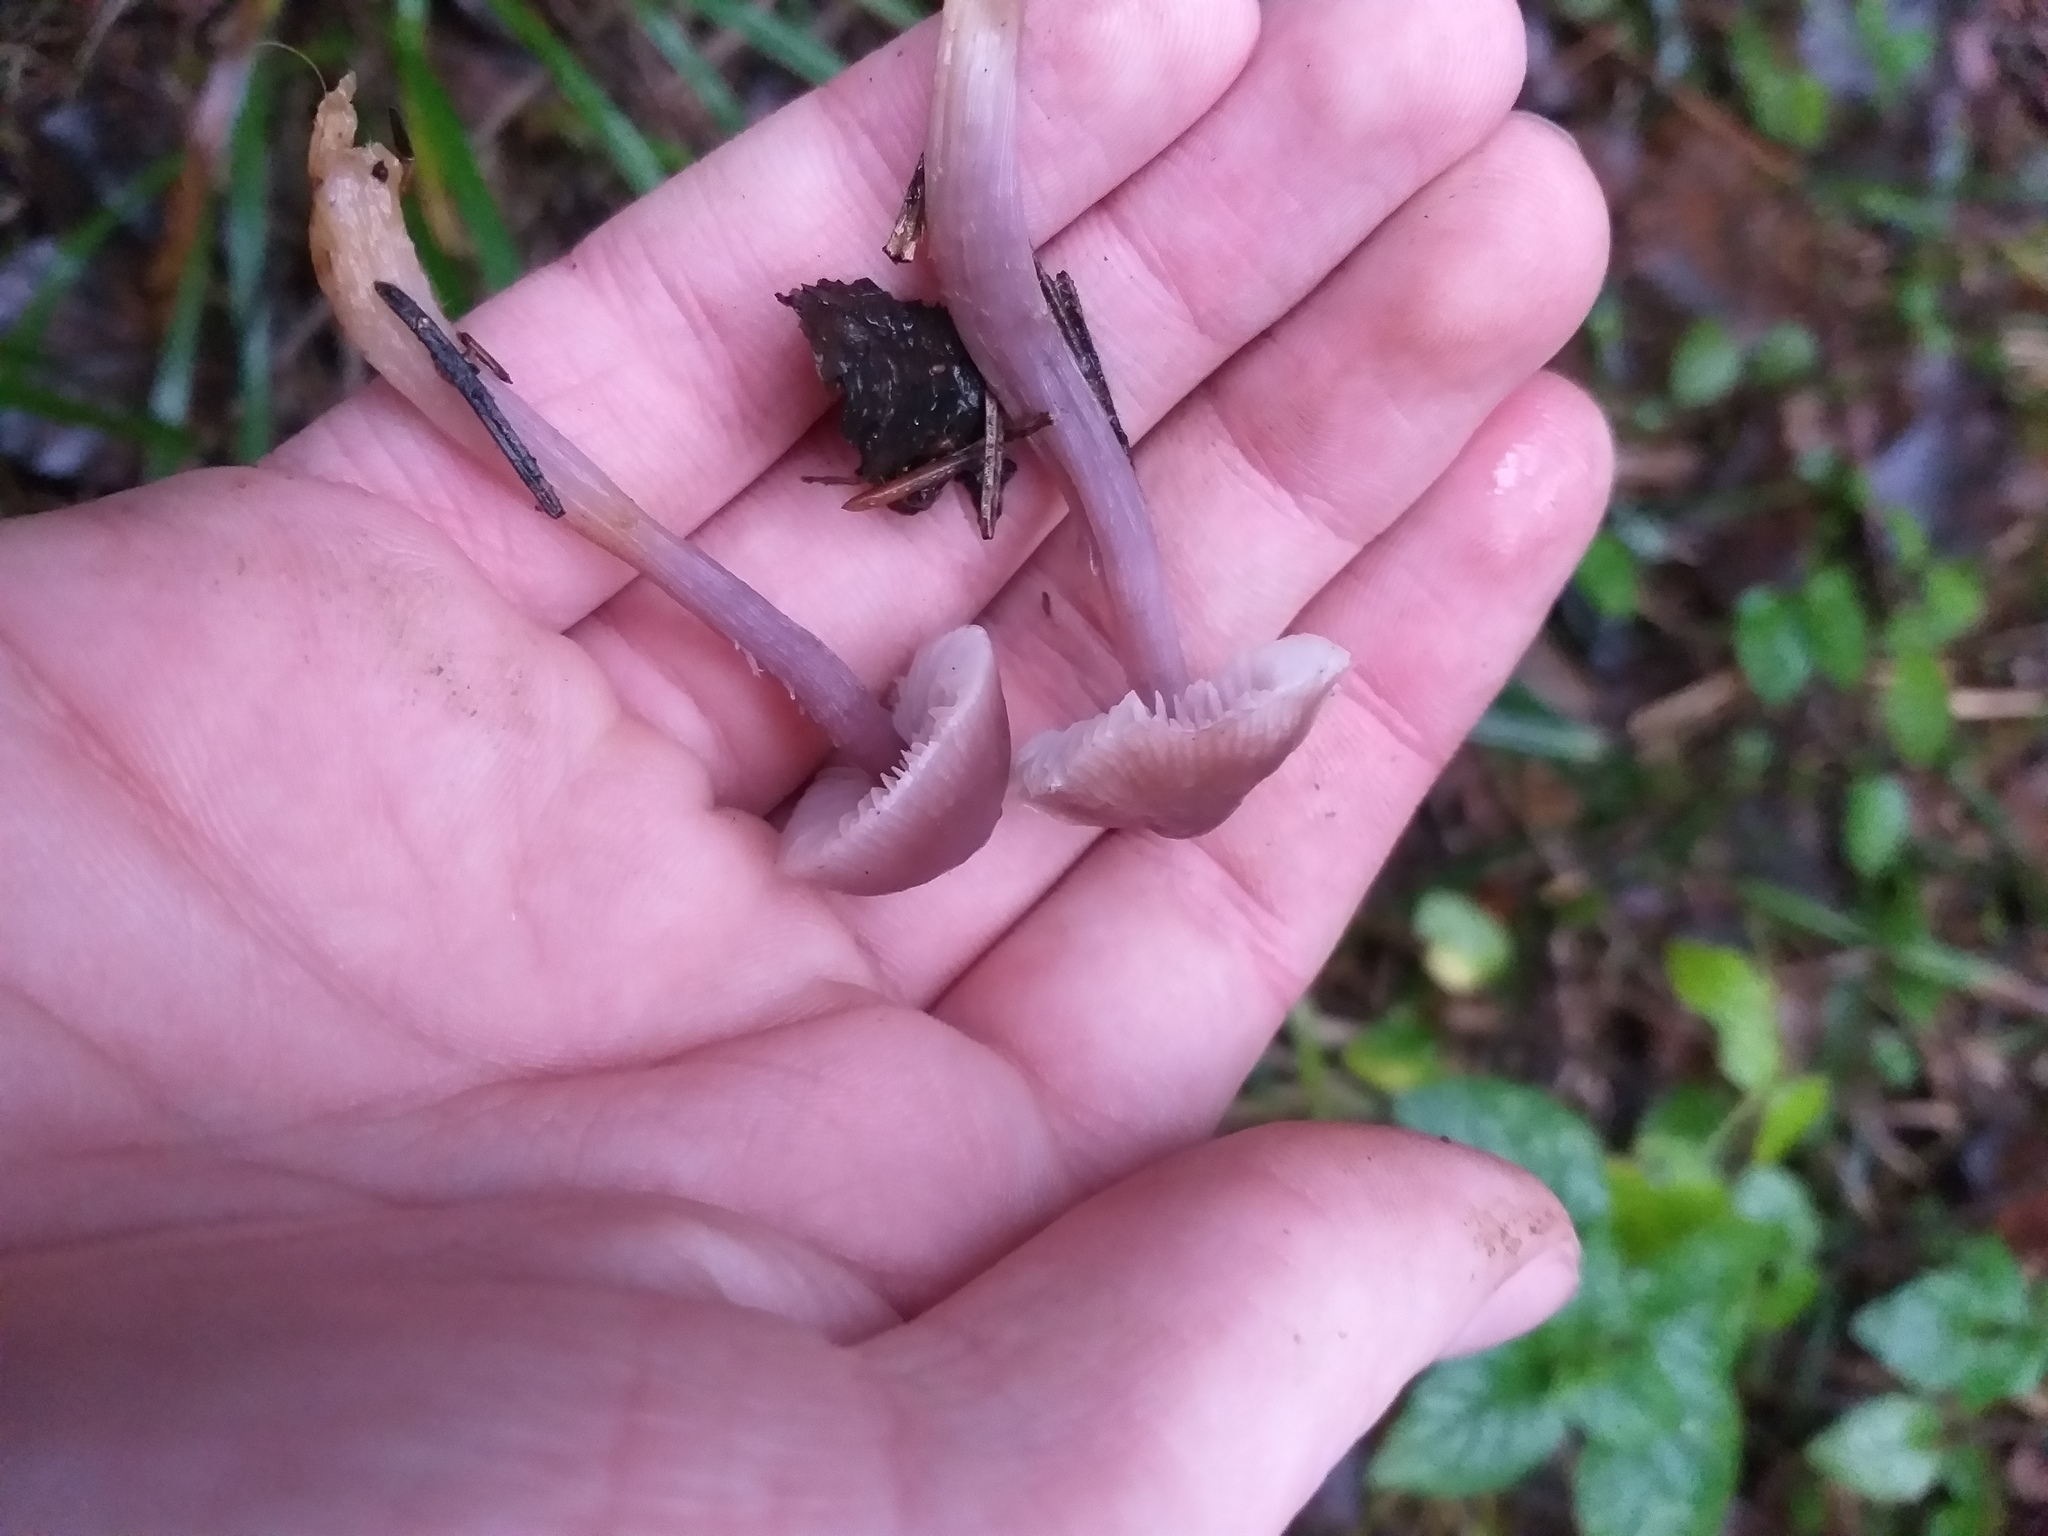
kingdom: Fungi
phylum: Basidiomycota
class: Agaricomycetes
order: Agaricales
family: Mycenaceae
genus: Mycena
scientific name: Mycena pura
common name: Lilac bonnet
